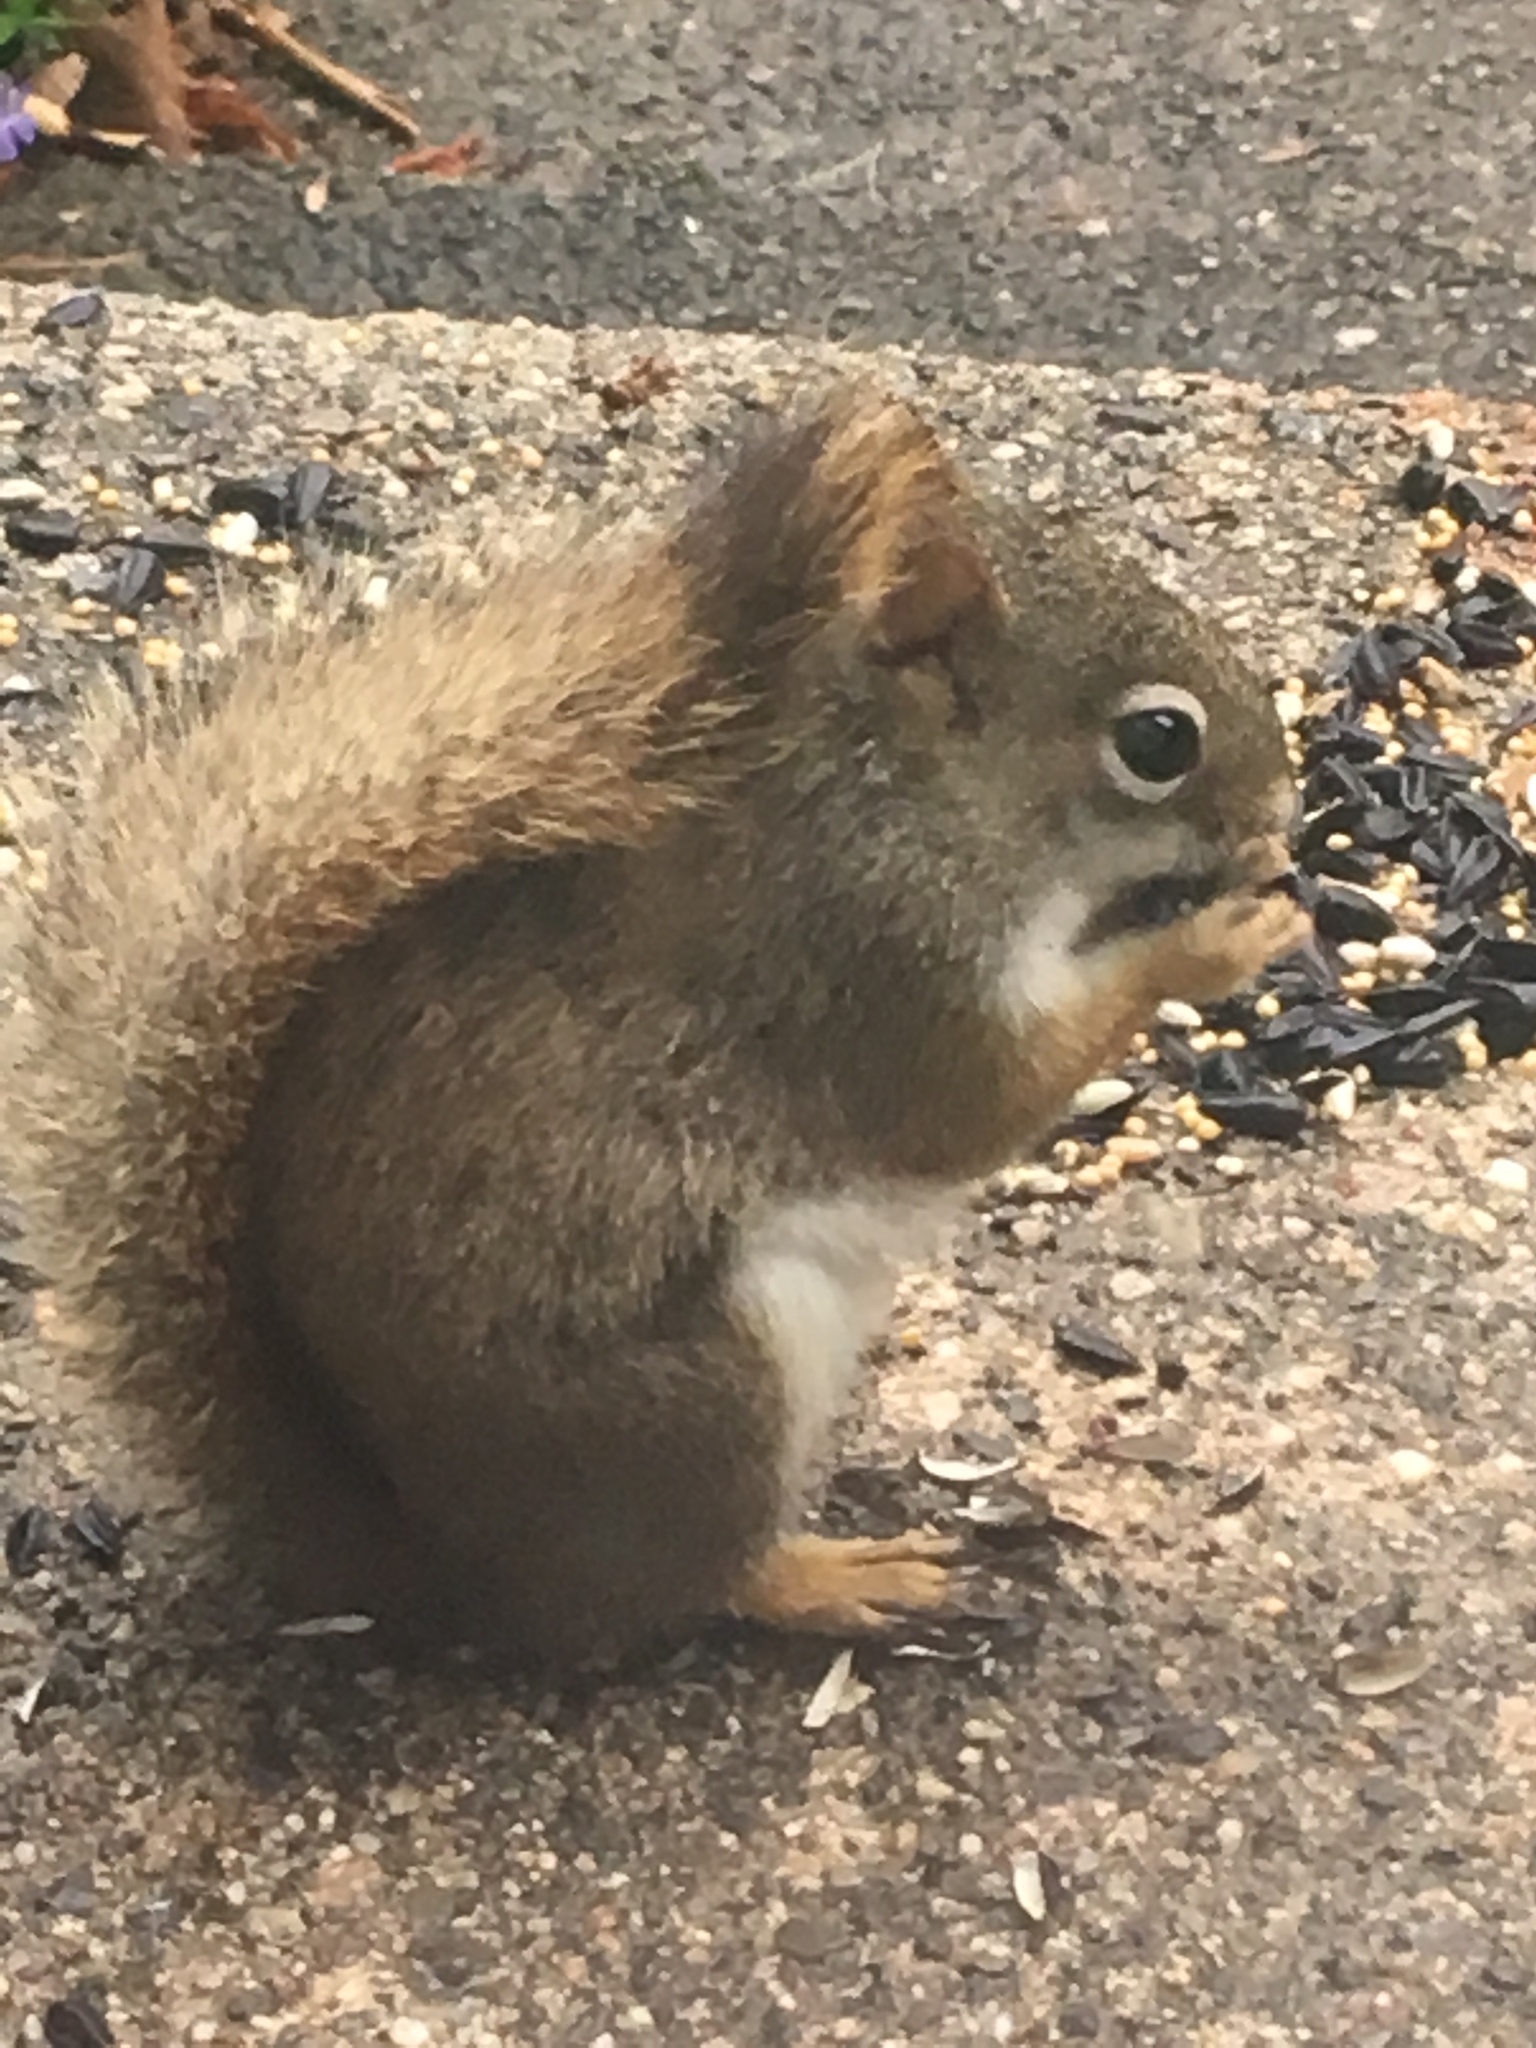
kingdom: Animalia
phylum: Chordata
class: Mammalia
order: Rodentia
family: Sciuridae
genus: Tamiasciurus
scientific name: Tamiasciurus hudsonicus
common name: Red squirrel
